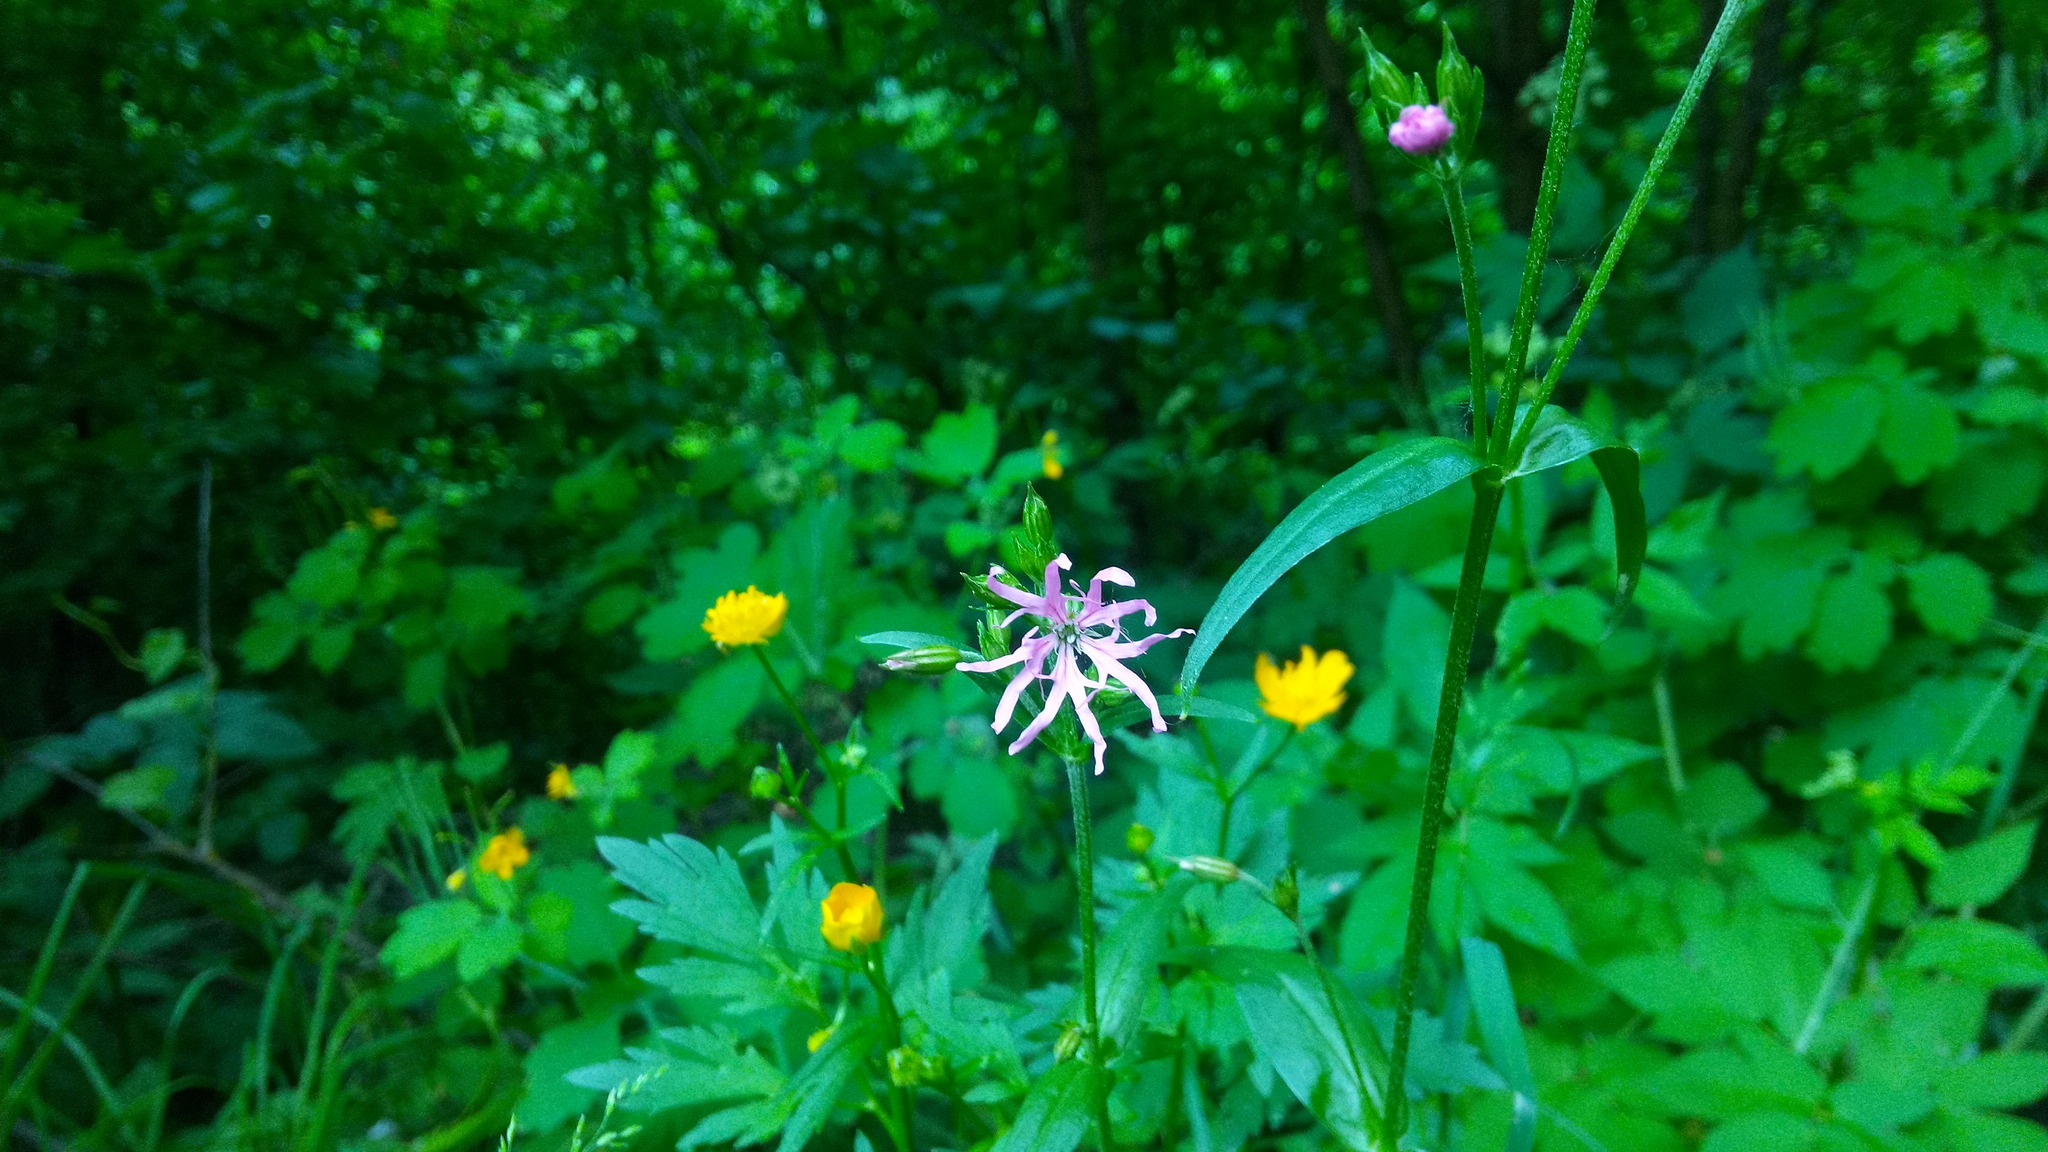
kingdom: Plantae
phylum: Tracheophyta
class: Magnoliopsida
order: Caryophyllales
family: Caryophyllaceae
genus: Silene
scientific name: Silene flos-cuculi
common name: Ragged-robin
